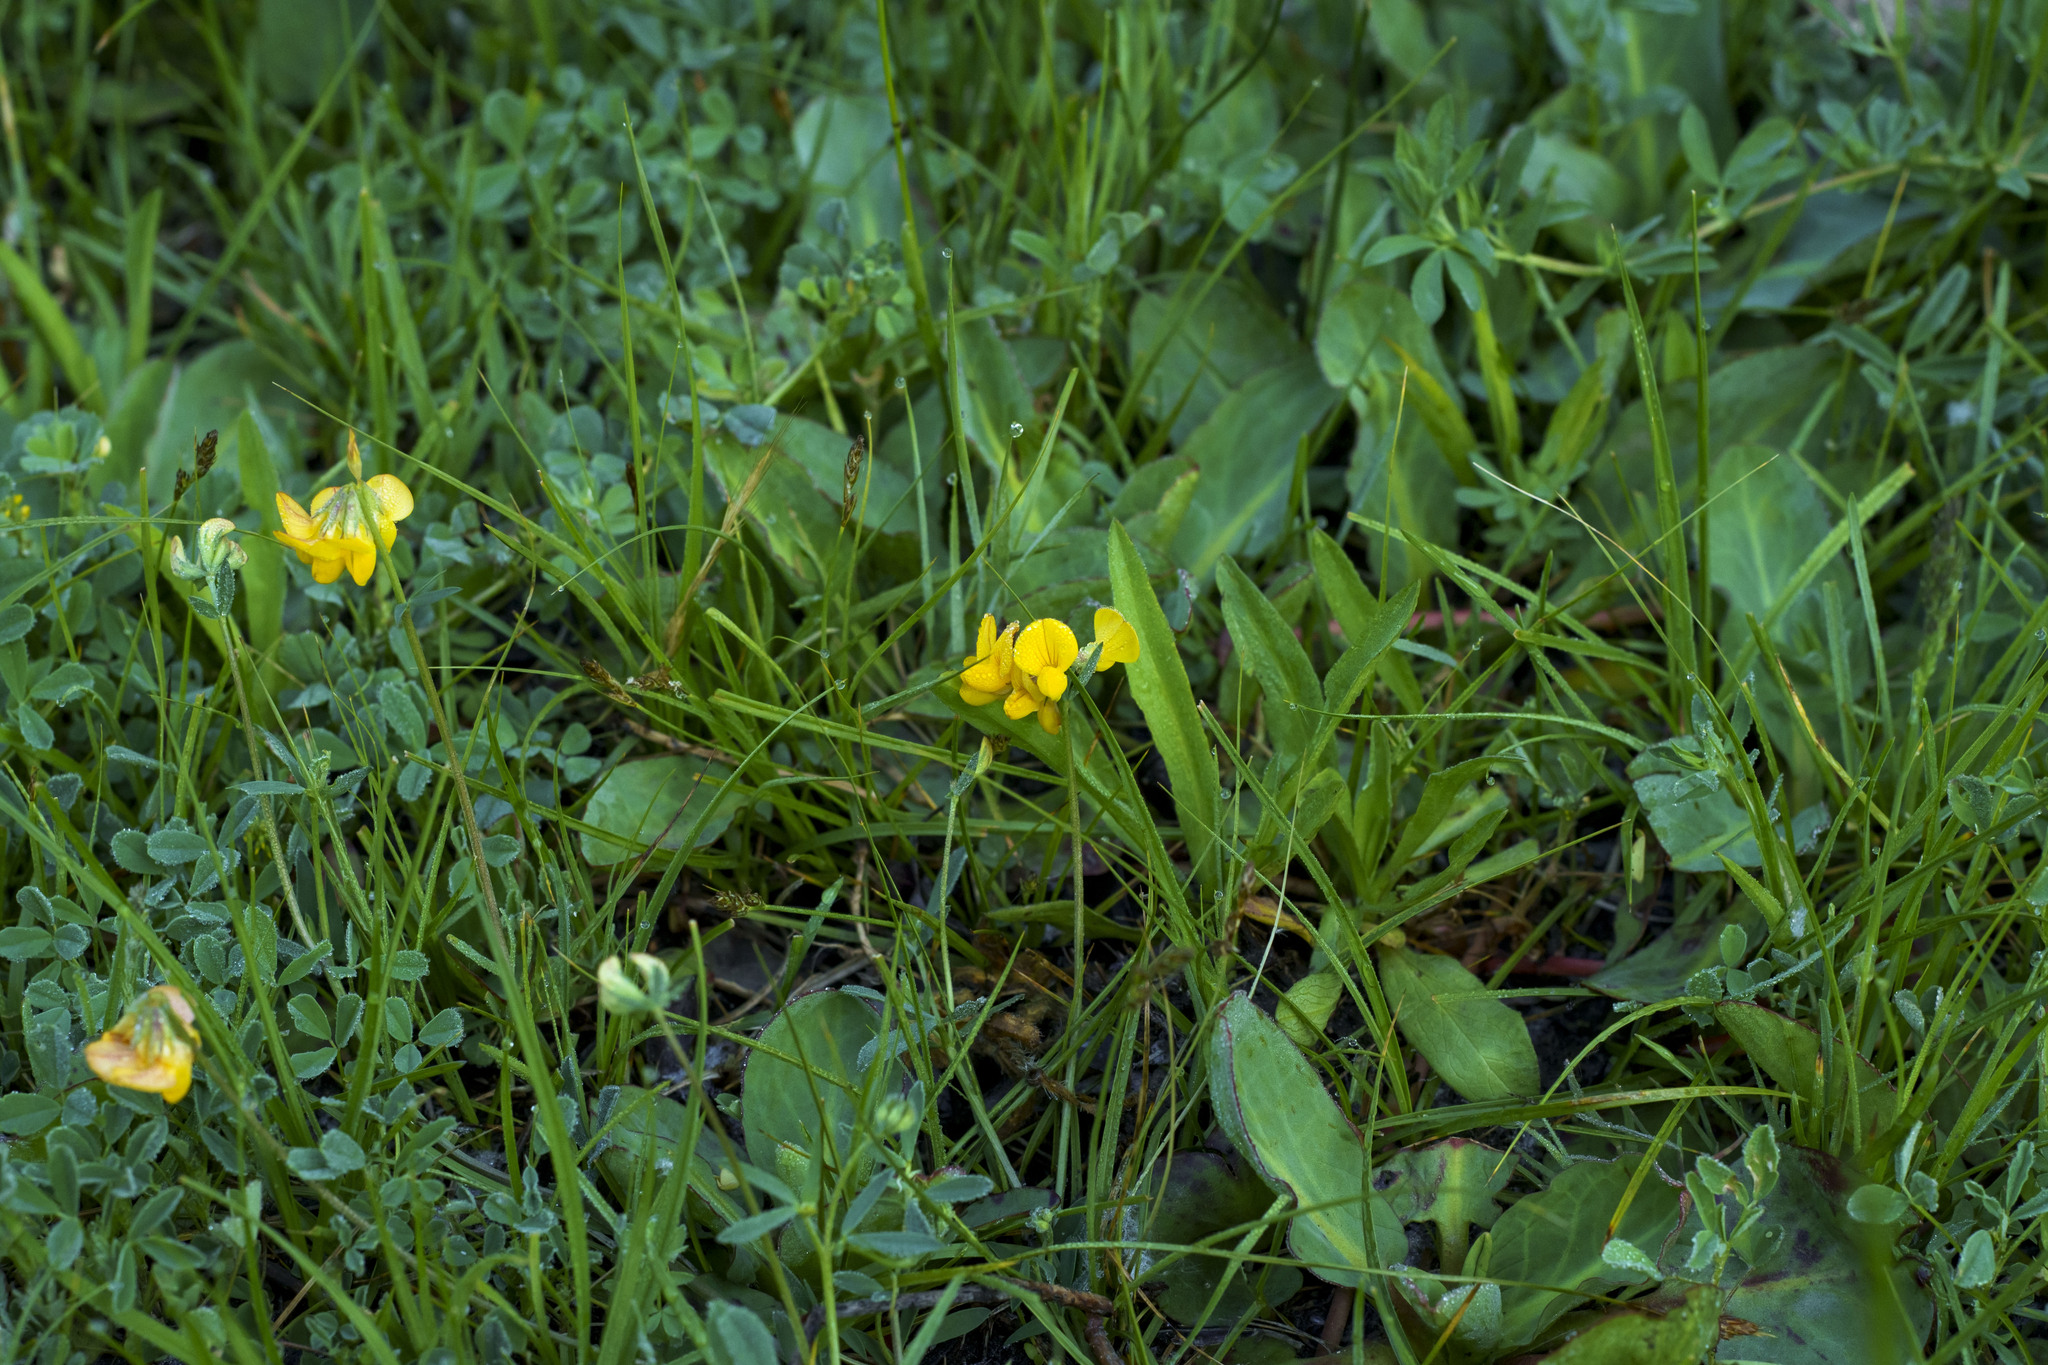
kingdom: Plantae
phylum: Tracheophyta
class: Magnoliopsida
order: Fabales
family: Fabaceae
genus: Lotus
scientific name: Lotus corniculatus
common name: Common bird's-foot-trefoil
